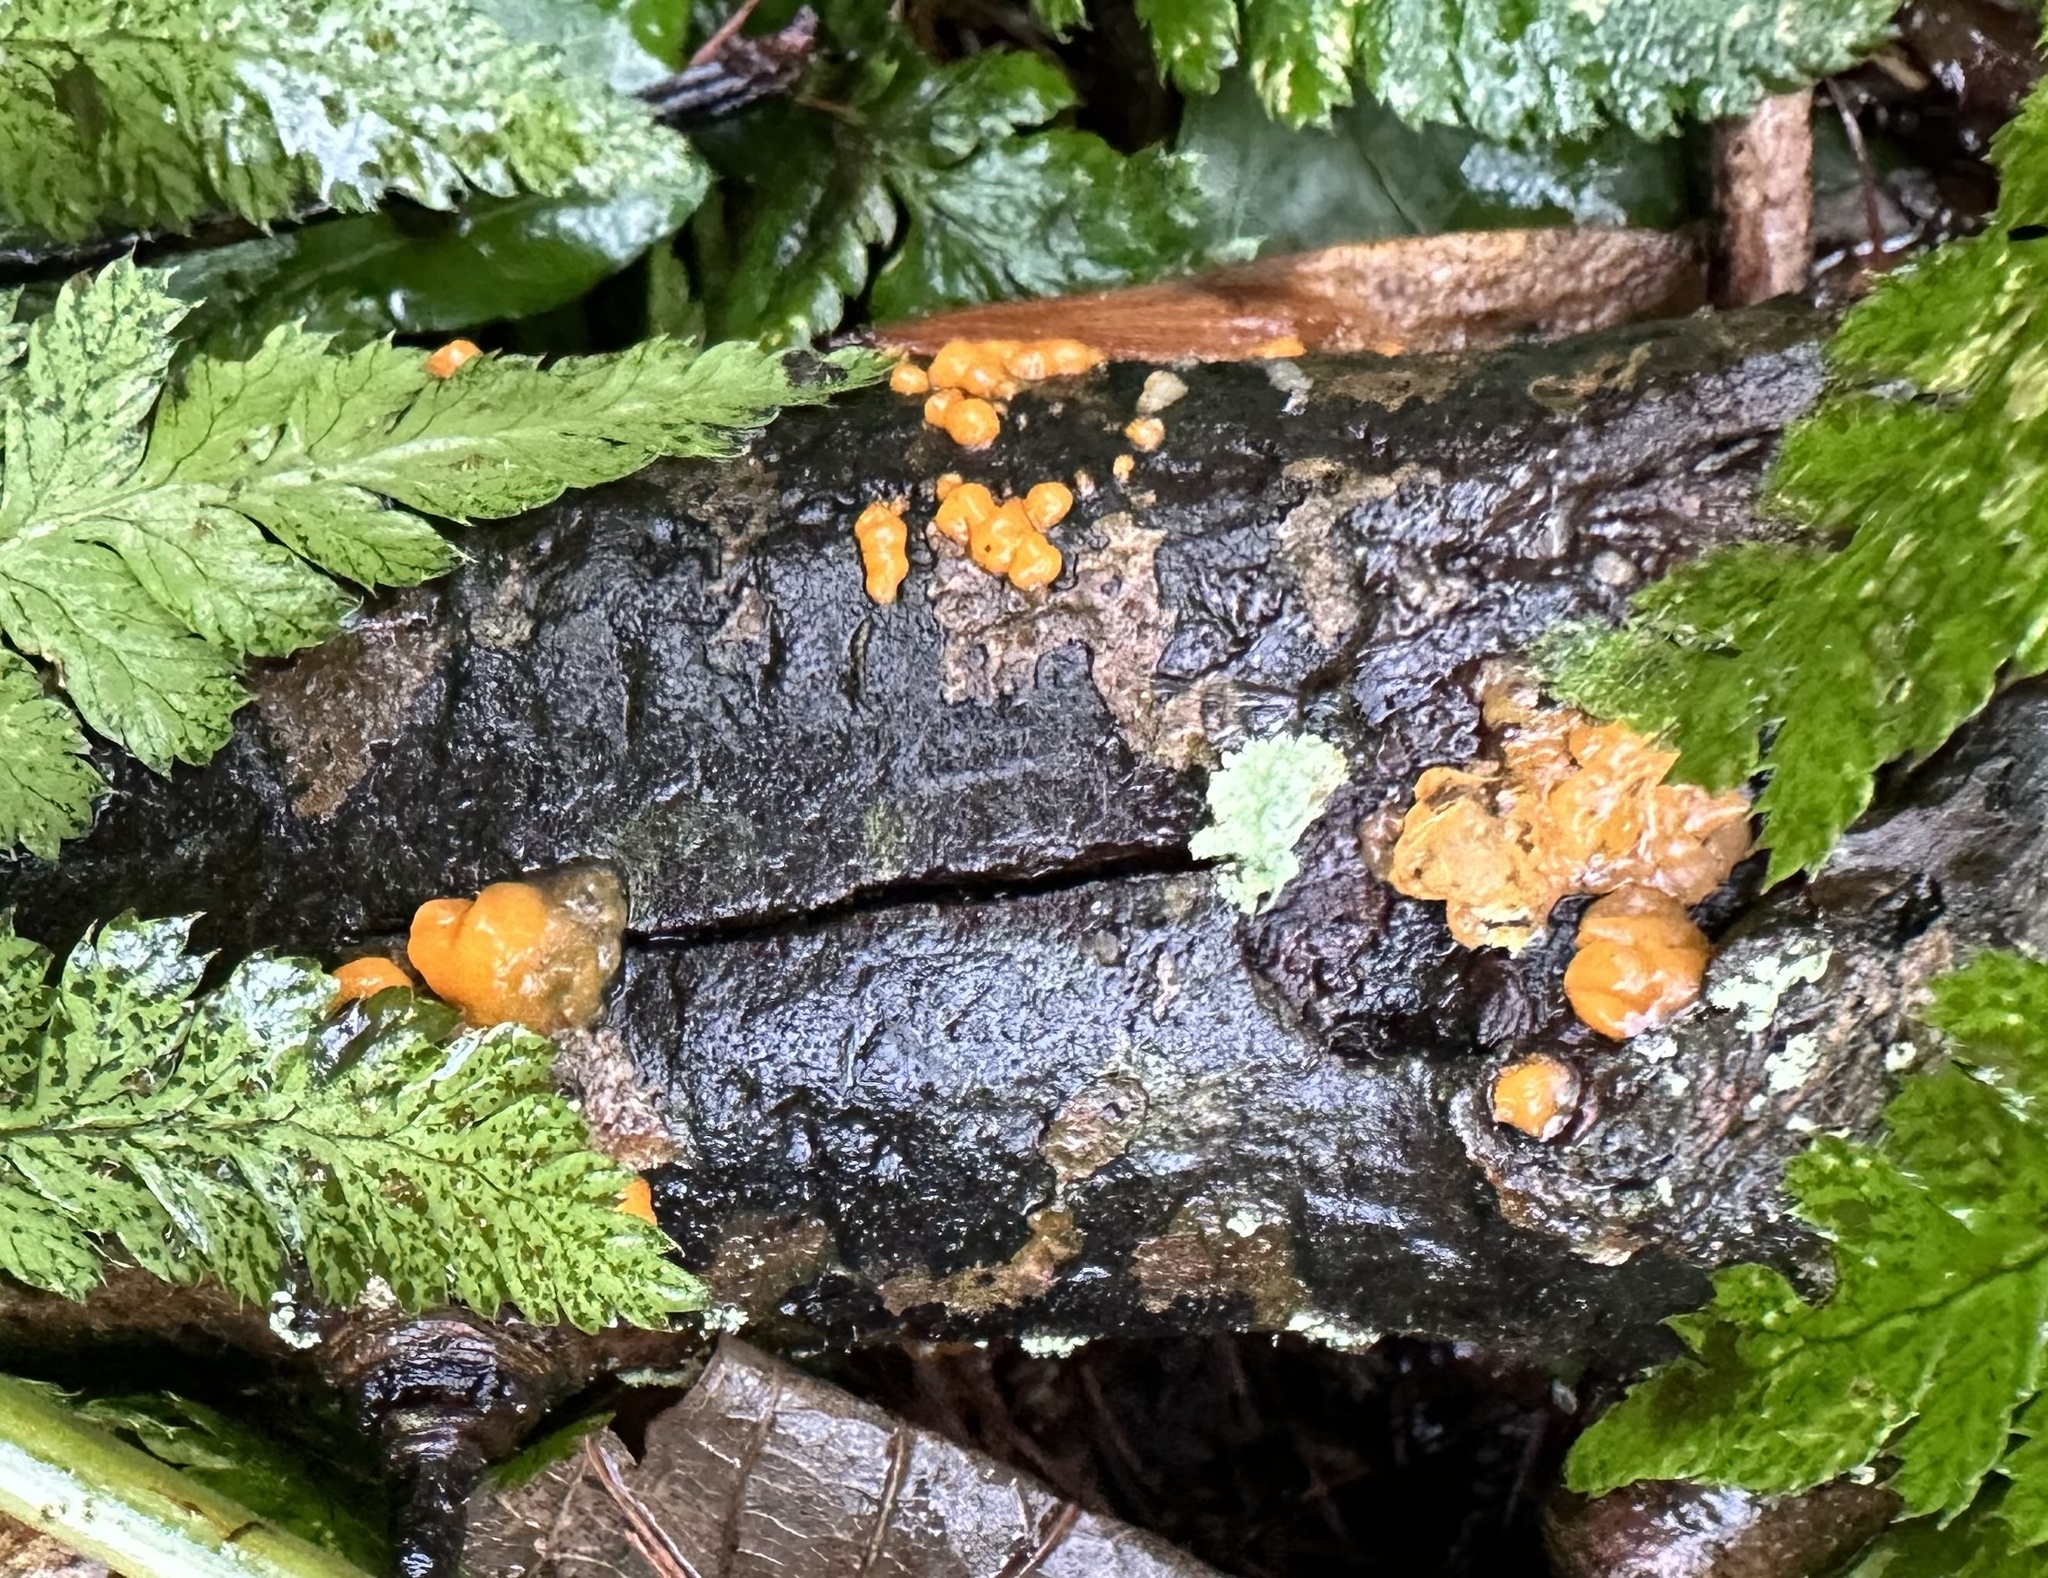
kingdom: Fungi
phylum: Basidiomycota
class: Dacrymycetes
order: Dacrymycetales
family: Dacrymycetaceae
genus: Dacrymyces
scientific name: Dacrymyces stillatus
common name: Common jelly spot
